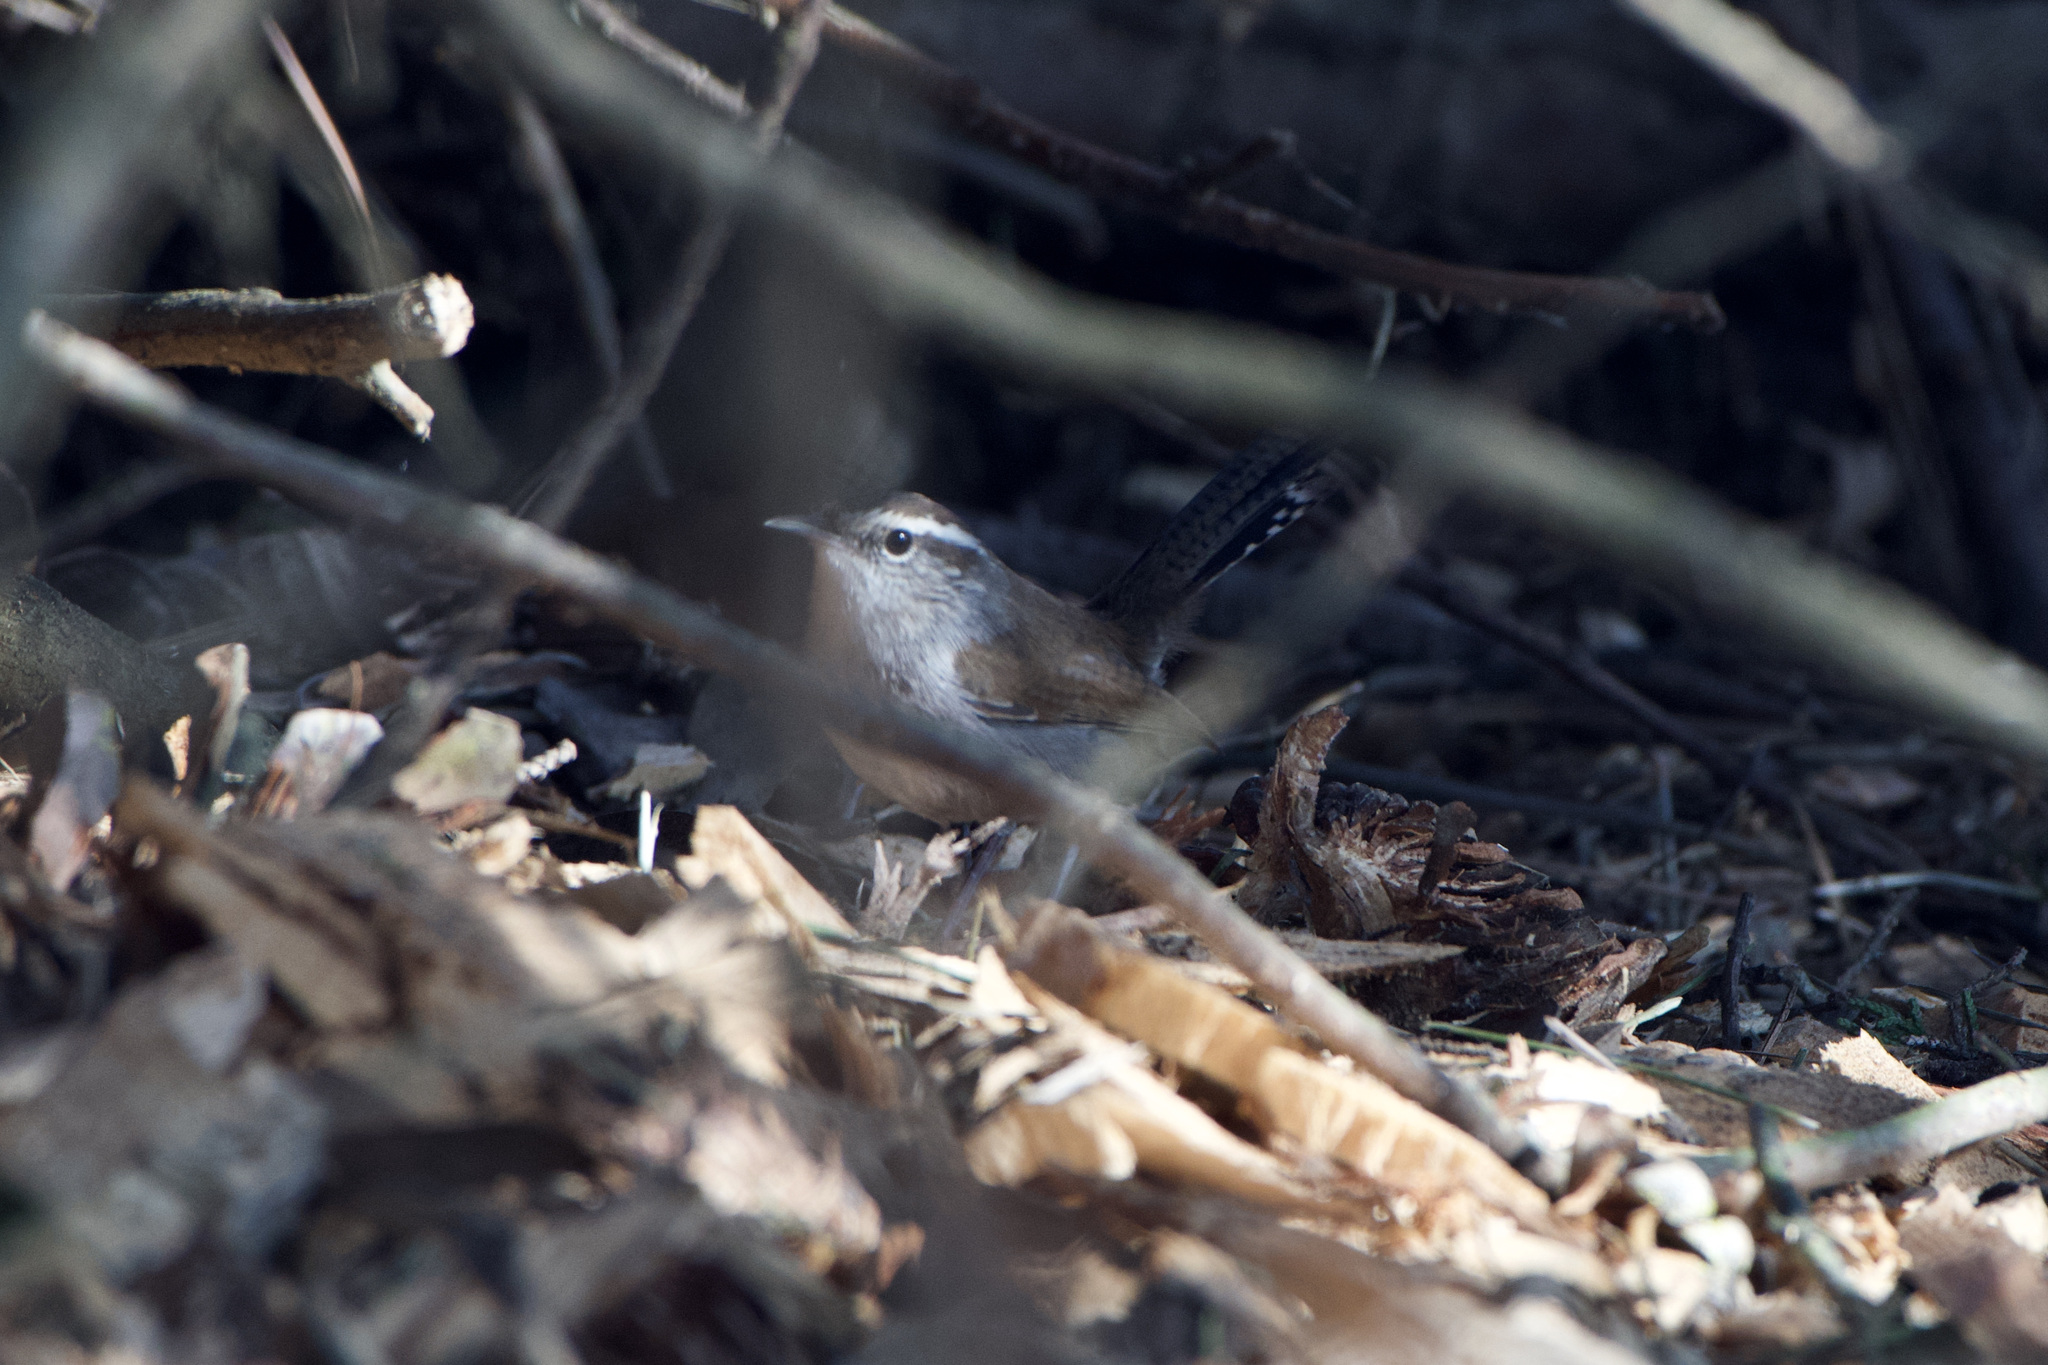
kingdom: Animalia
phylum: Chordata
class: Aves
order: Passeriformes
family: Troglodytidae
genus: Thryomanes
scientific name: Thryomanes bewickii
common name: Bewick's wren
